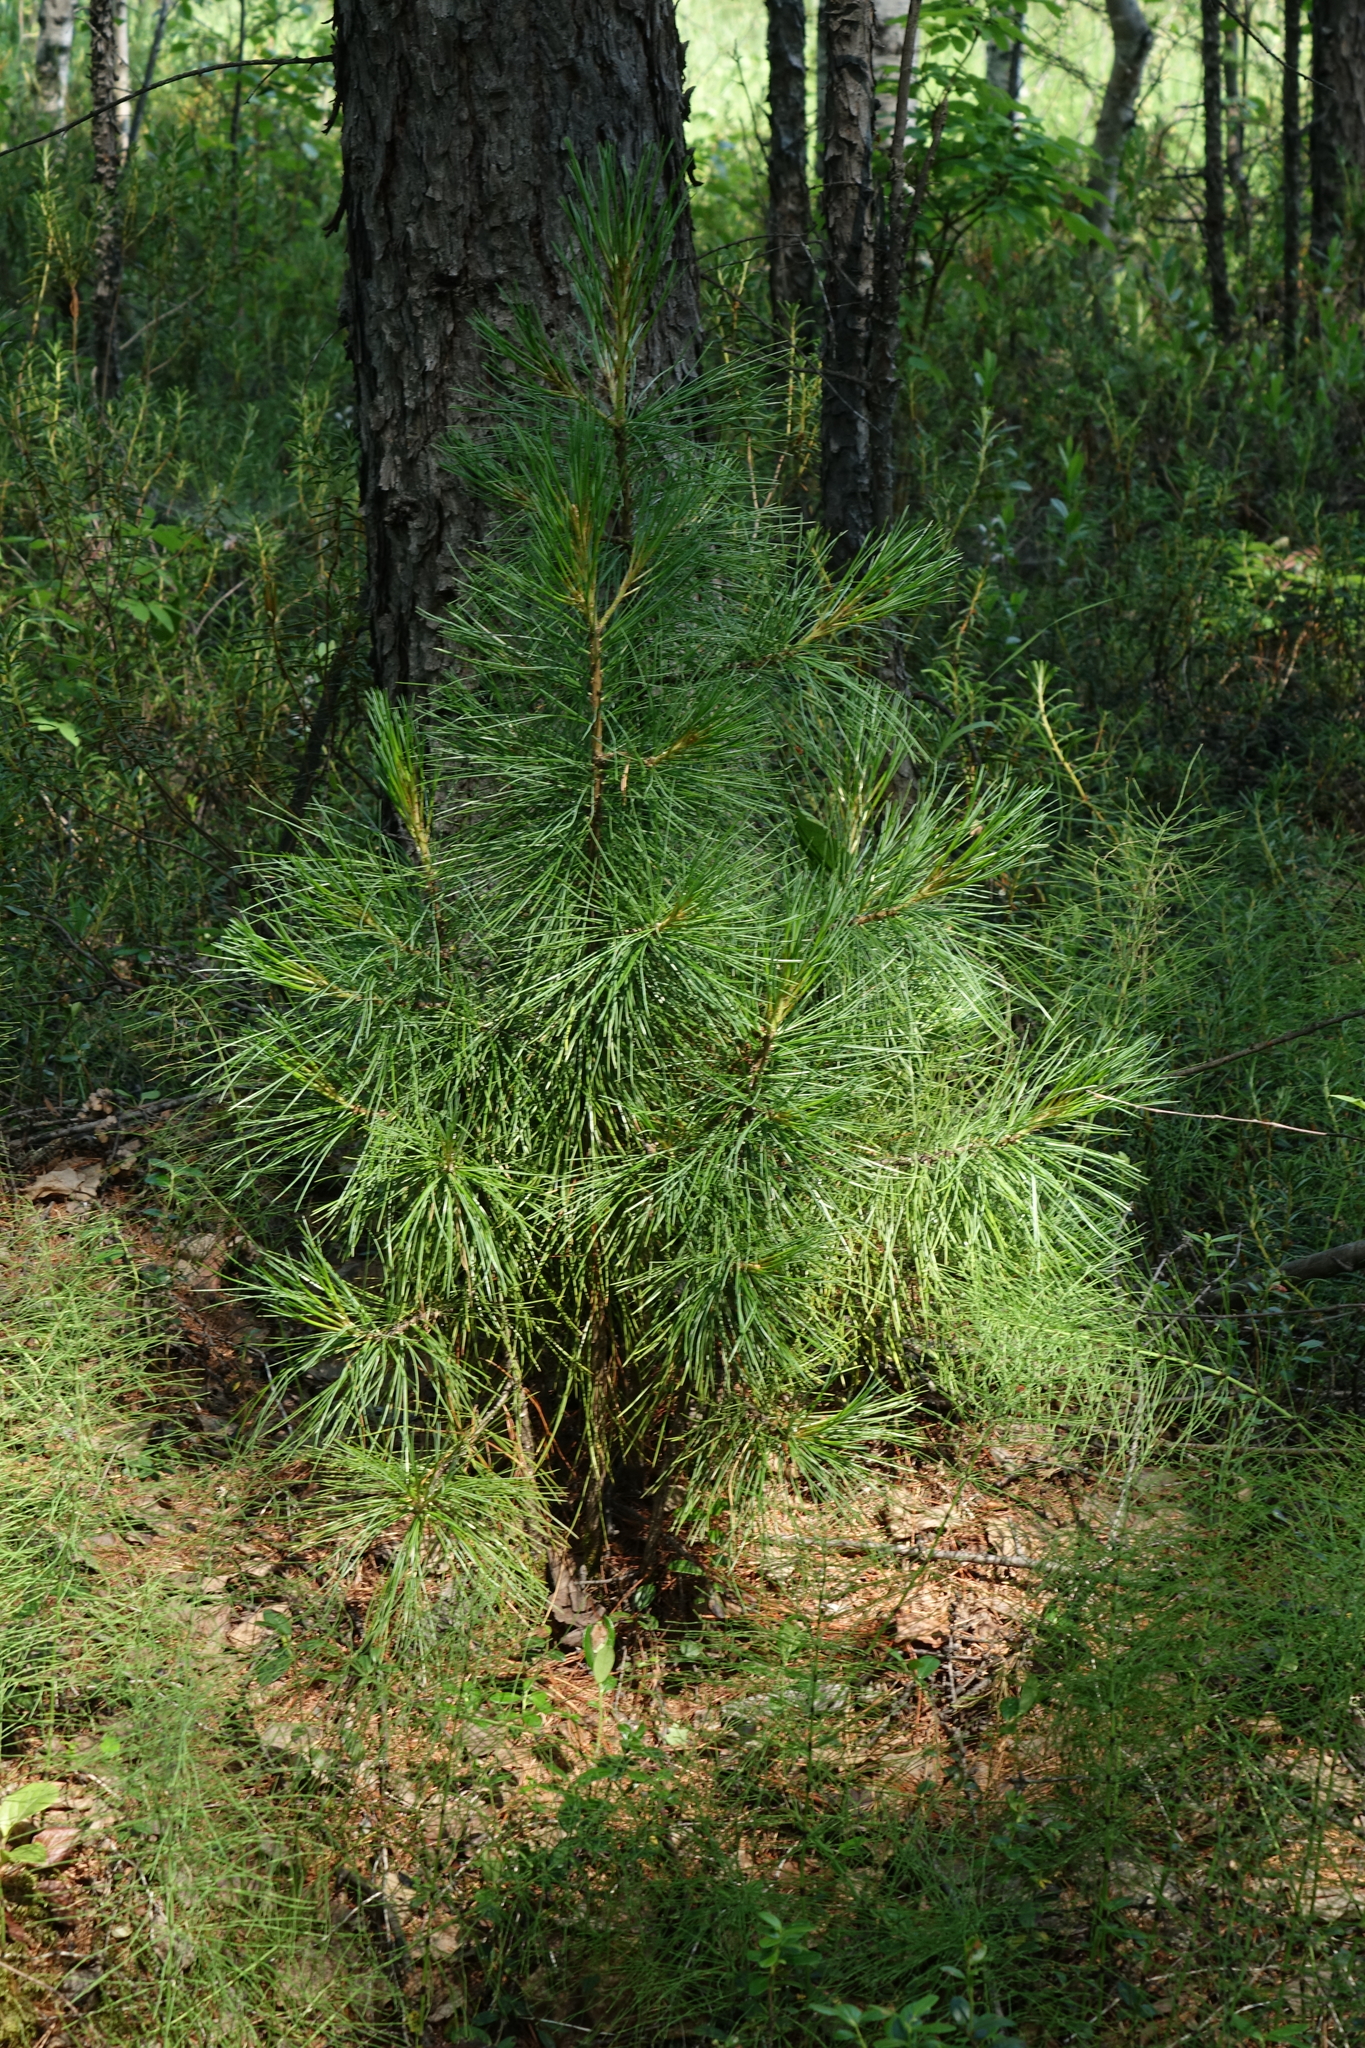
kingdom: Plantae
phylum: Tracheophyta
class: Pinopsida
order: Pinales
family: Pinaceae
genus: Pinus
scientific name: Pinus sibirica
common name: Siberian pine
